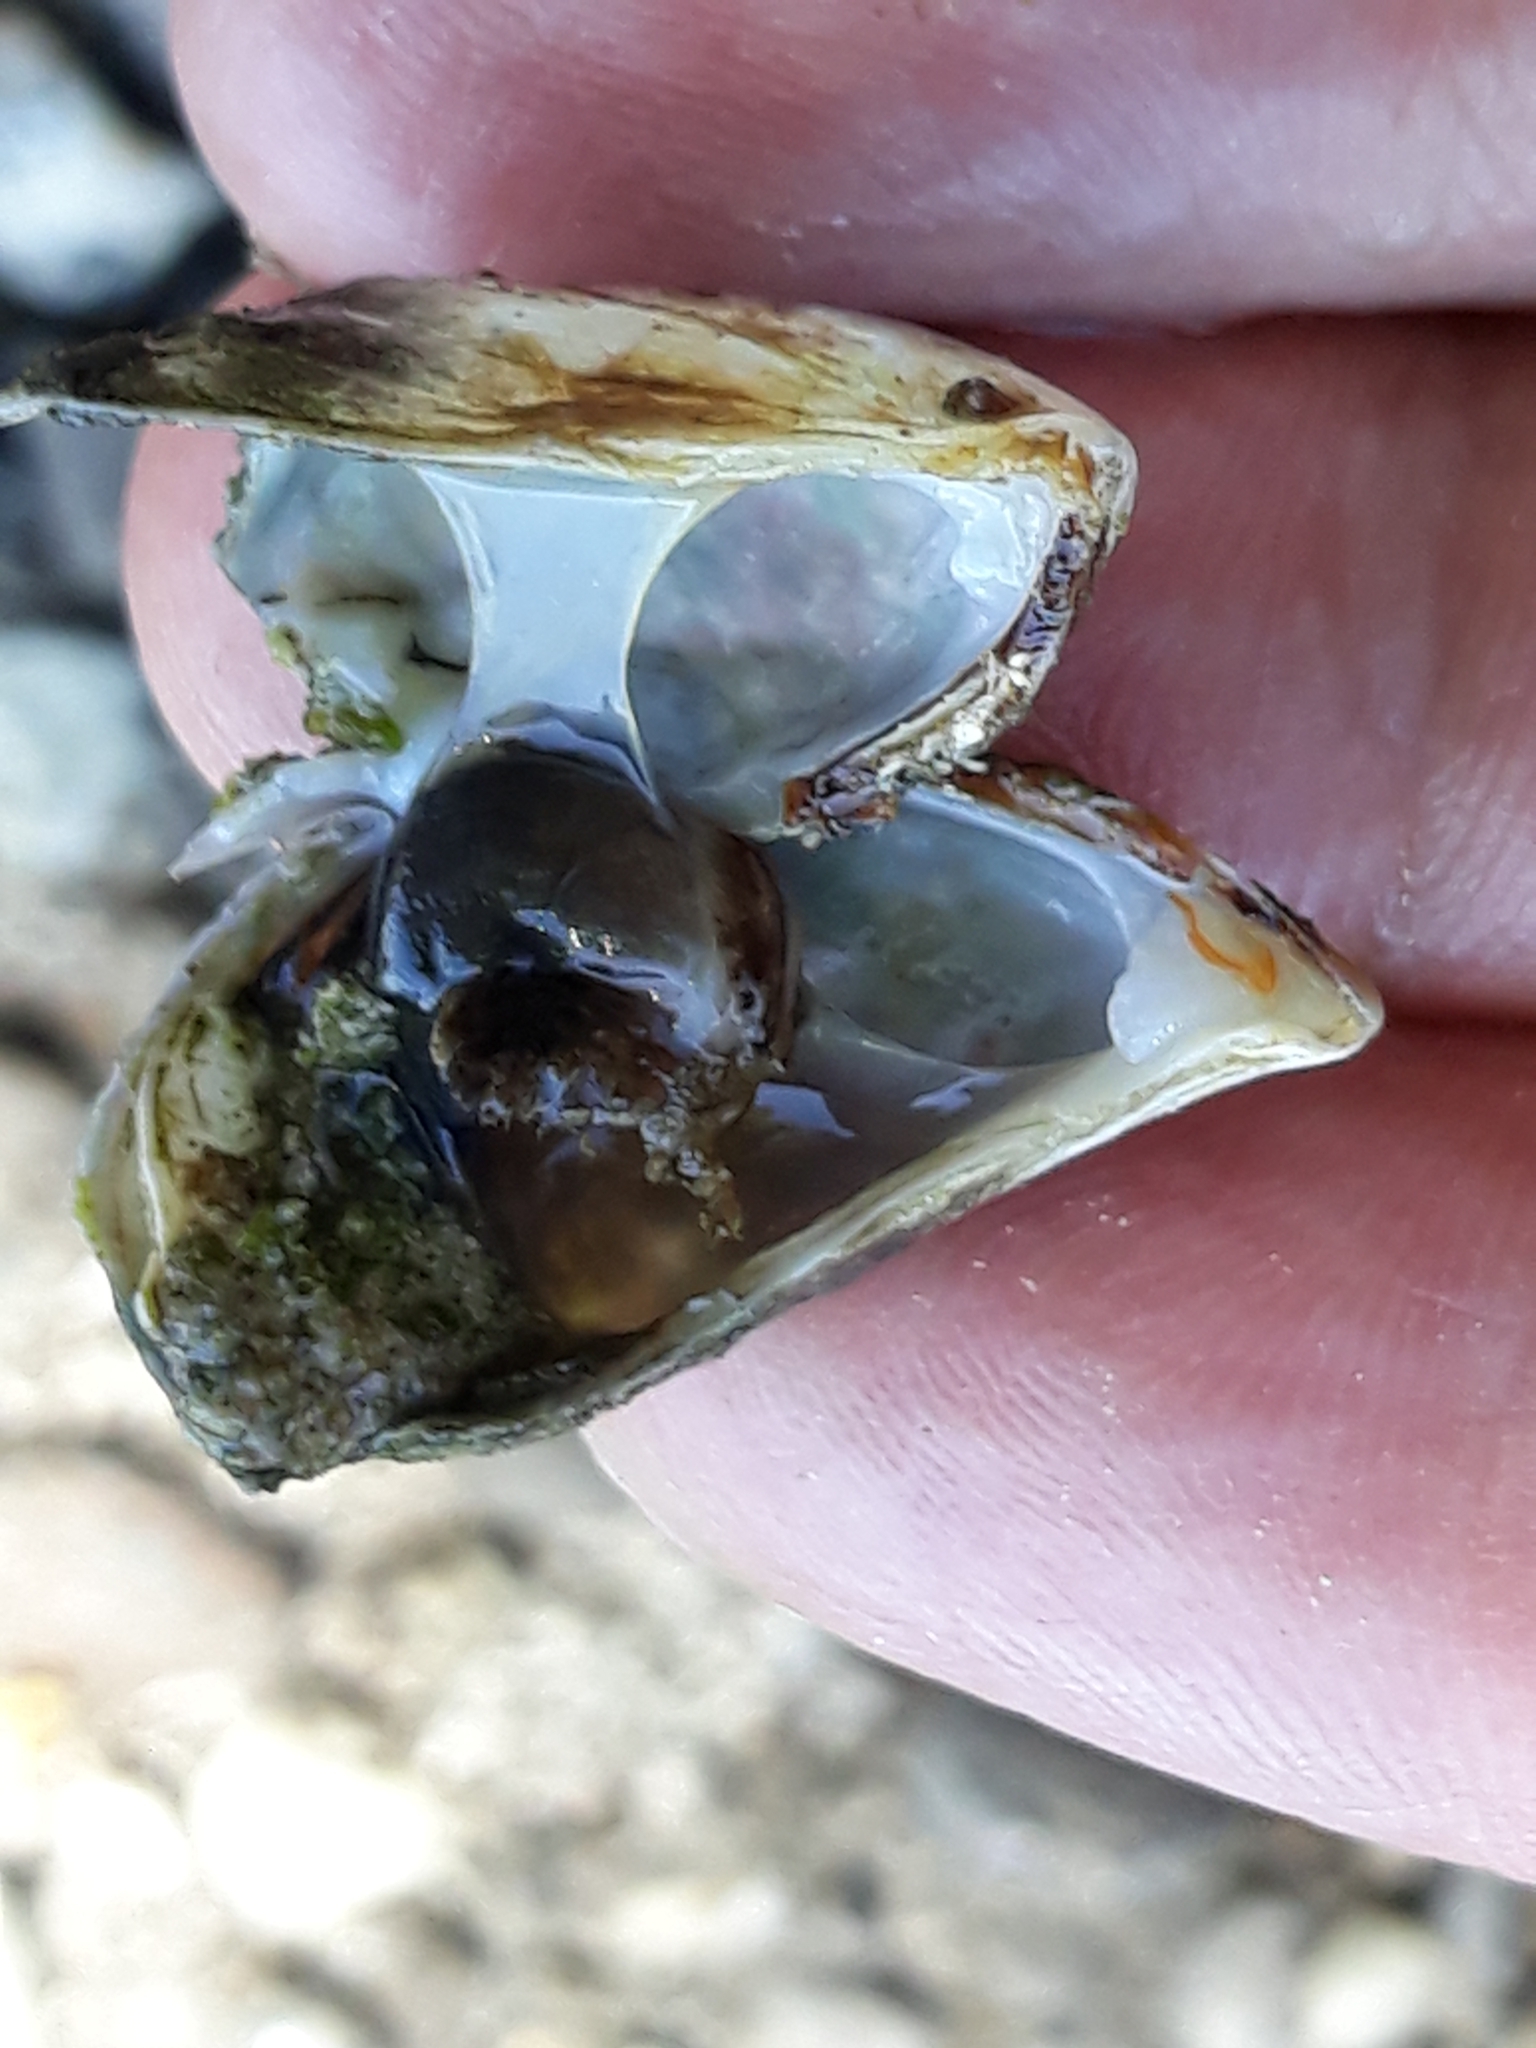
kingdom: Animalia
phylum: Mollusca
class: Bivalvia
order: Myida
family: Dreissenidae
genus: Dreissena
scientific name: Dreissena bugensis
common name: Quagga mussel
